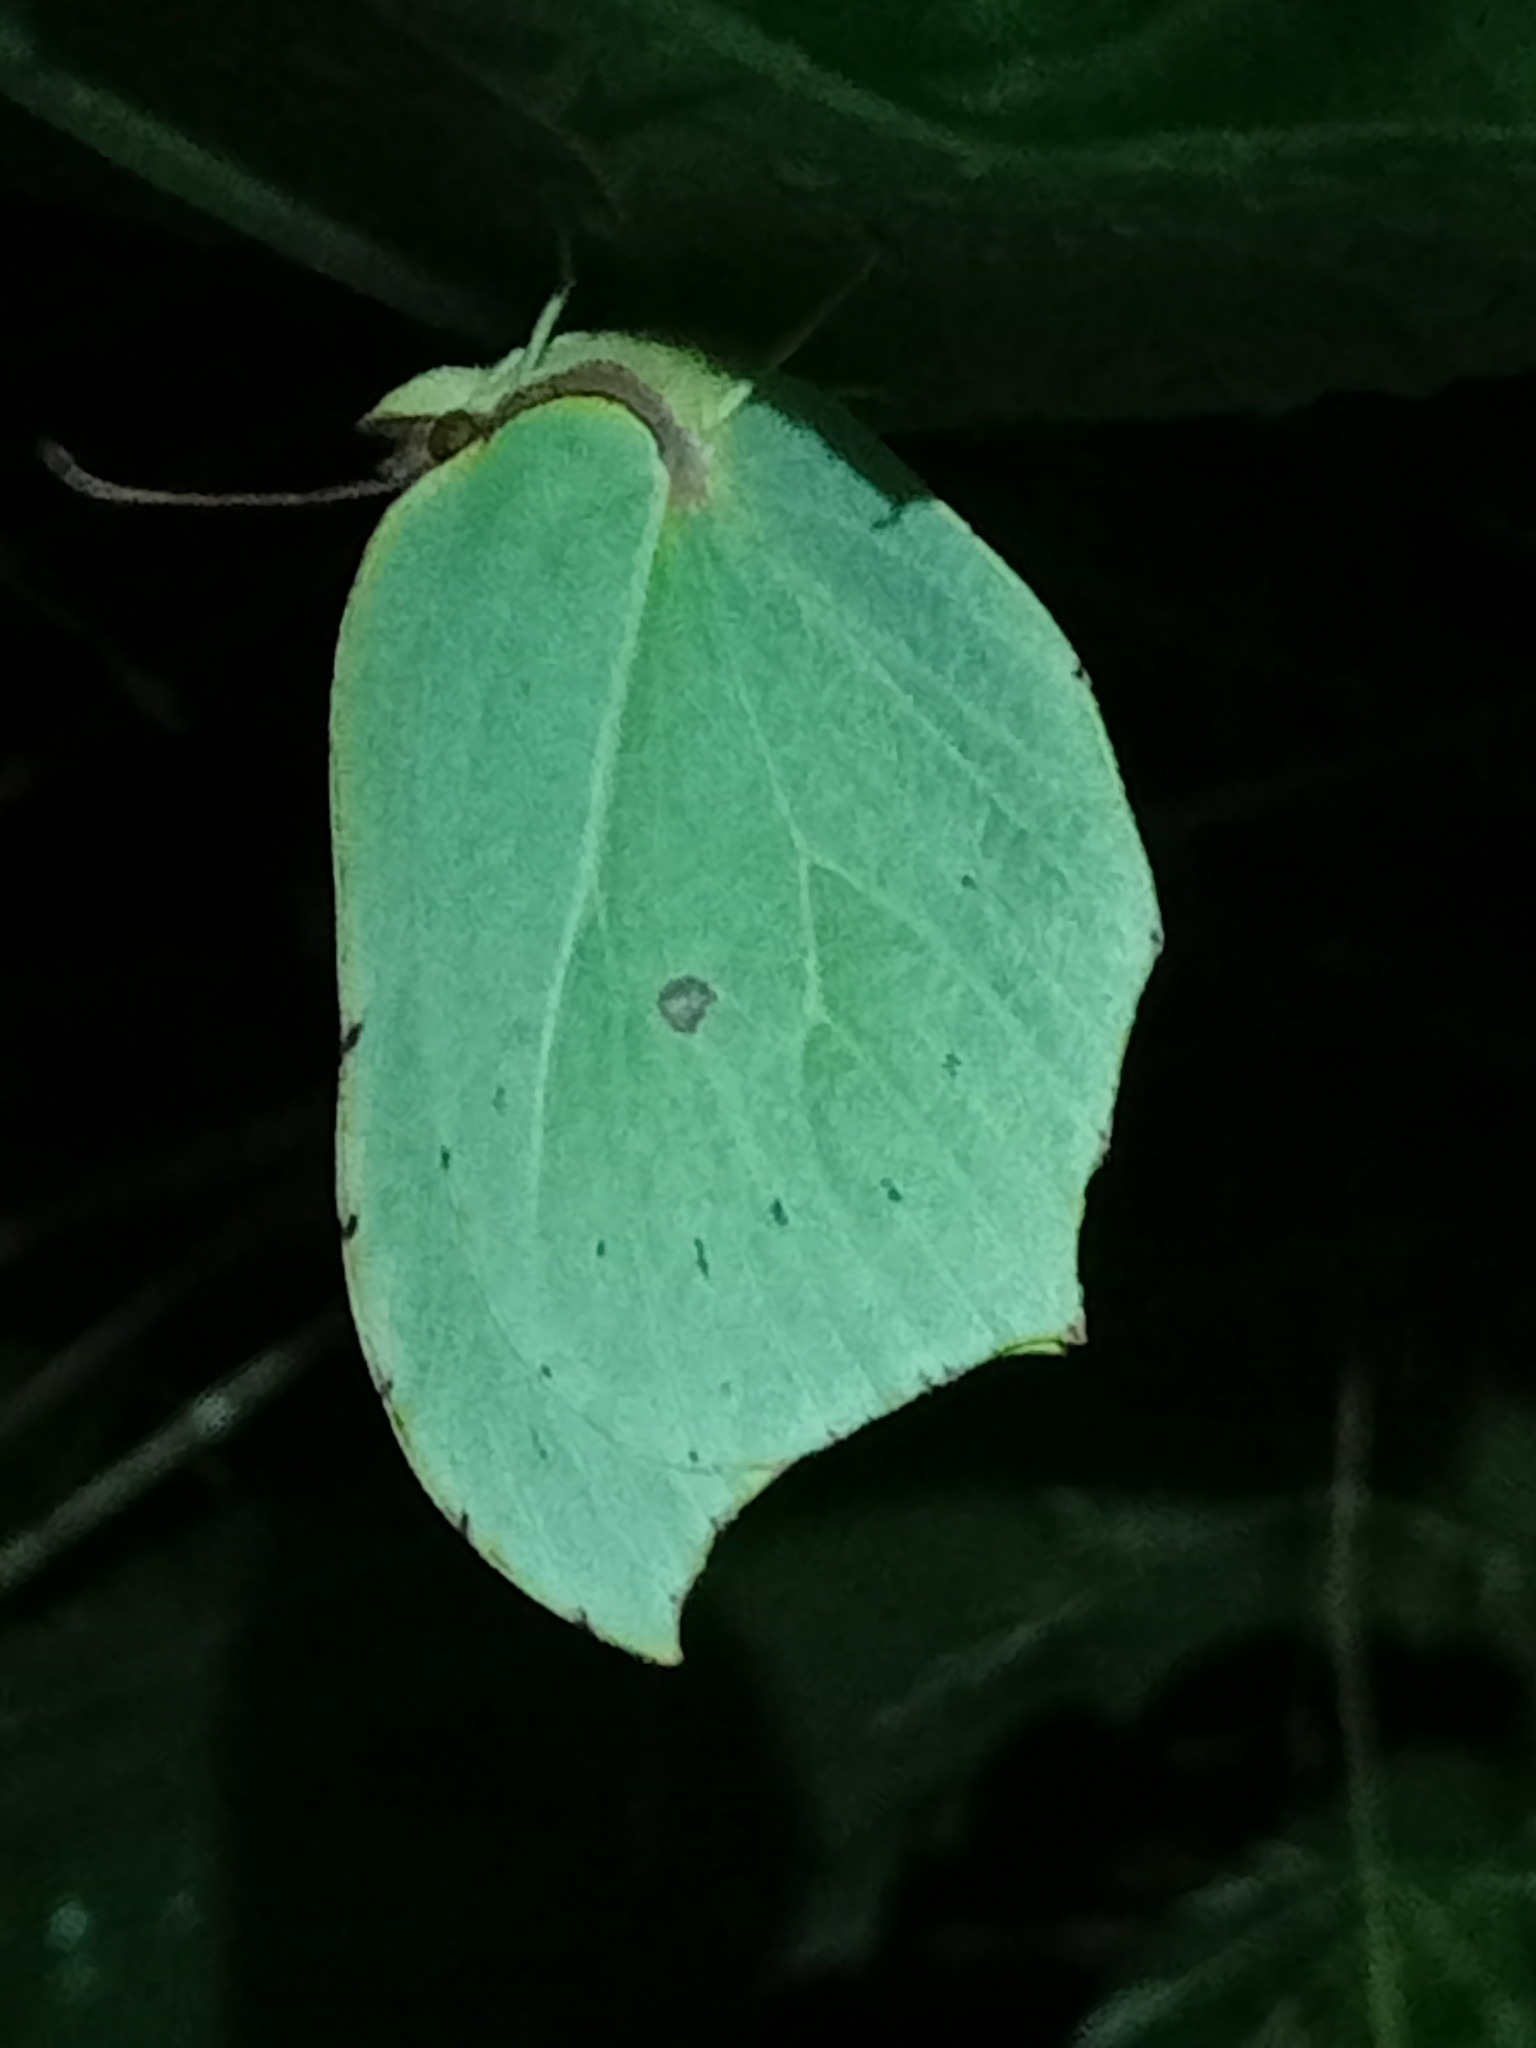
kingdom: Animalia
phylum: Arthropoda
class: Insecta
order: Lepidoptera
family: Pieridae
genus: Gonepteryx
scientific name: Gonepteryx rhamni
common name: Brimstone
